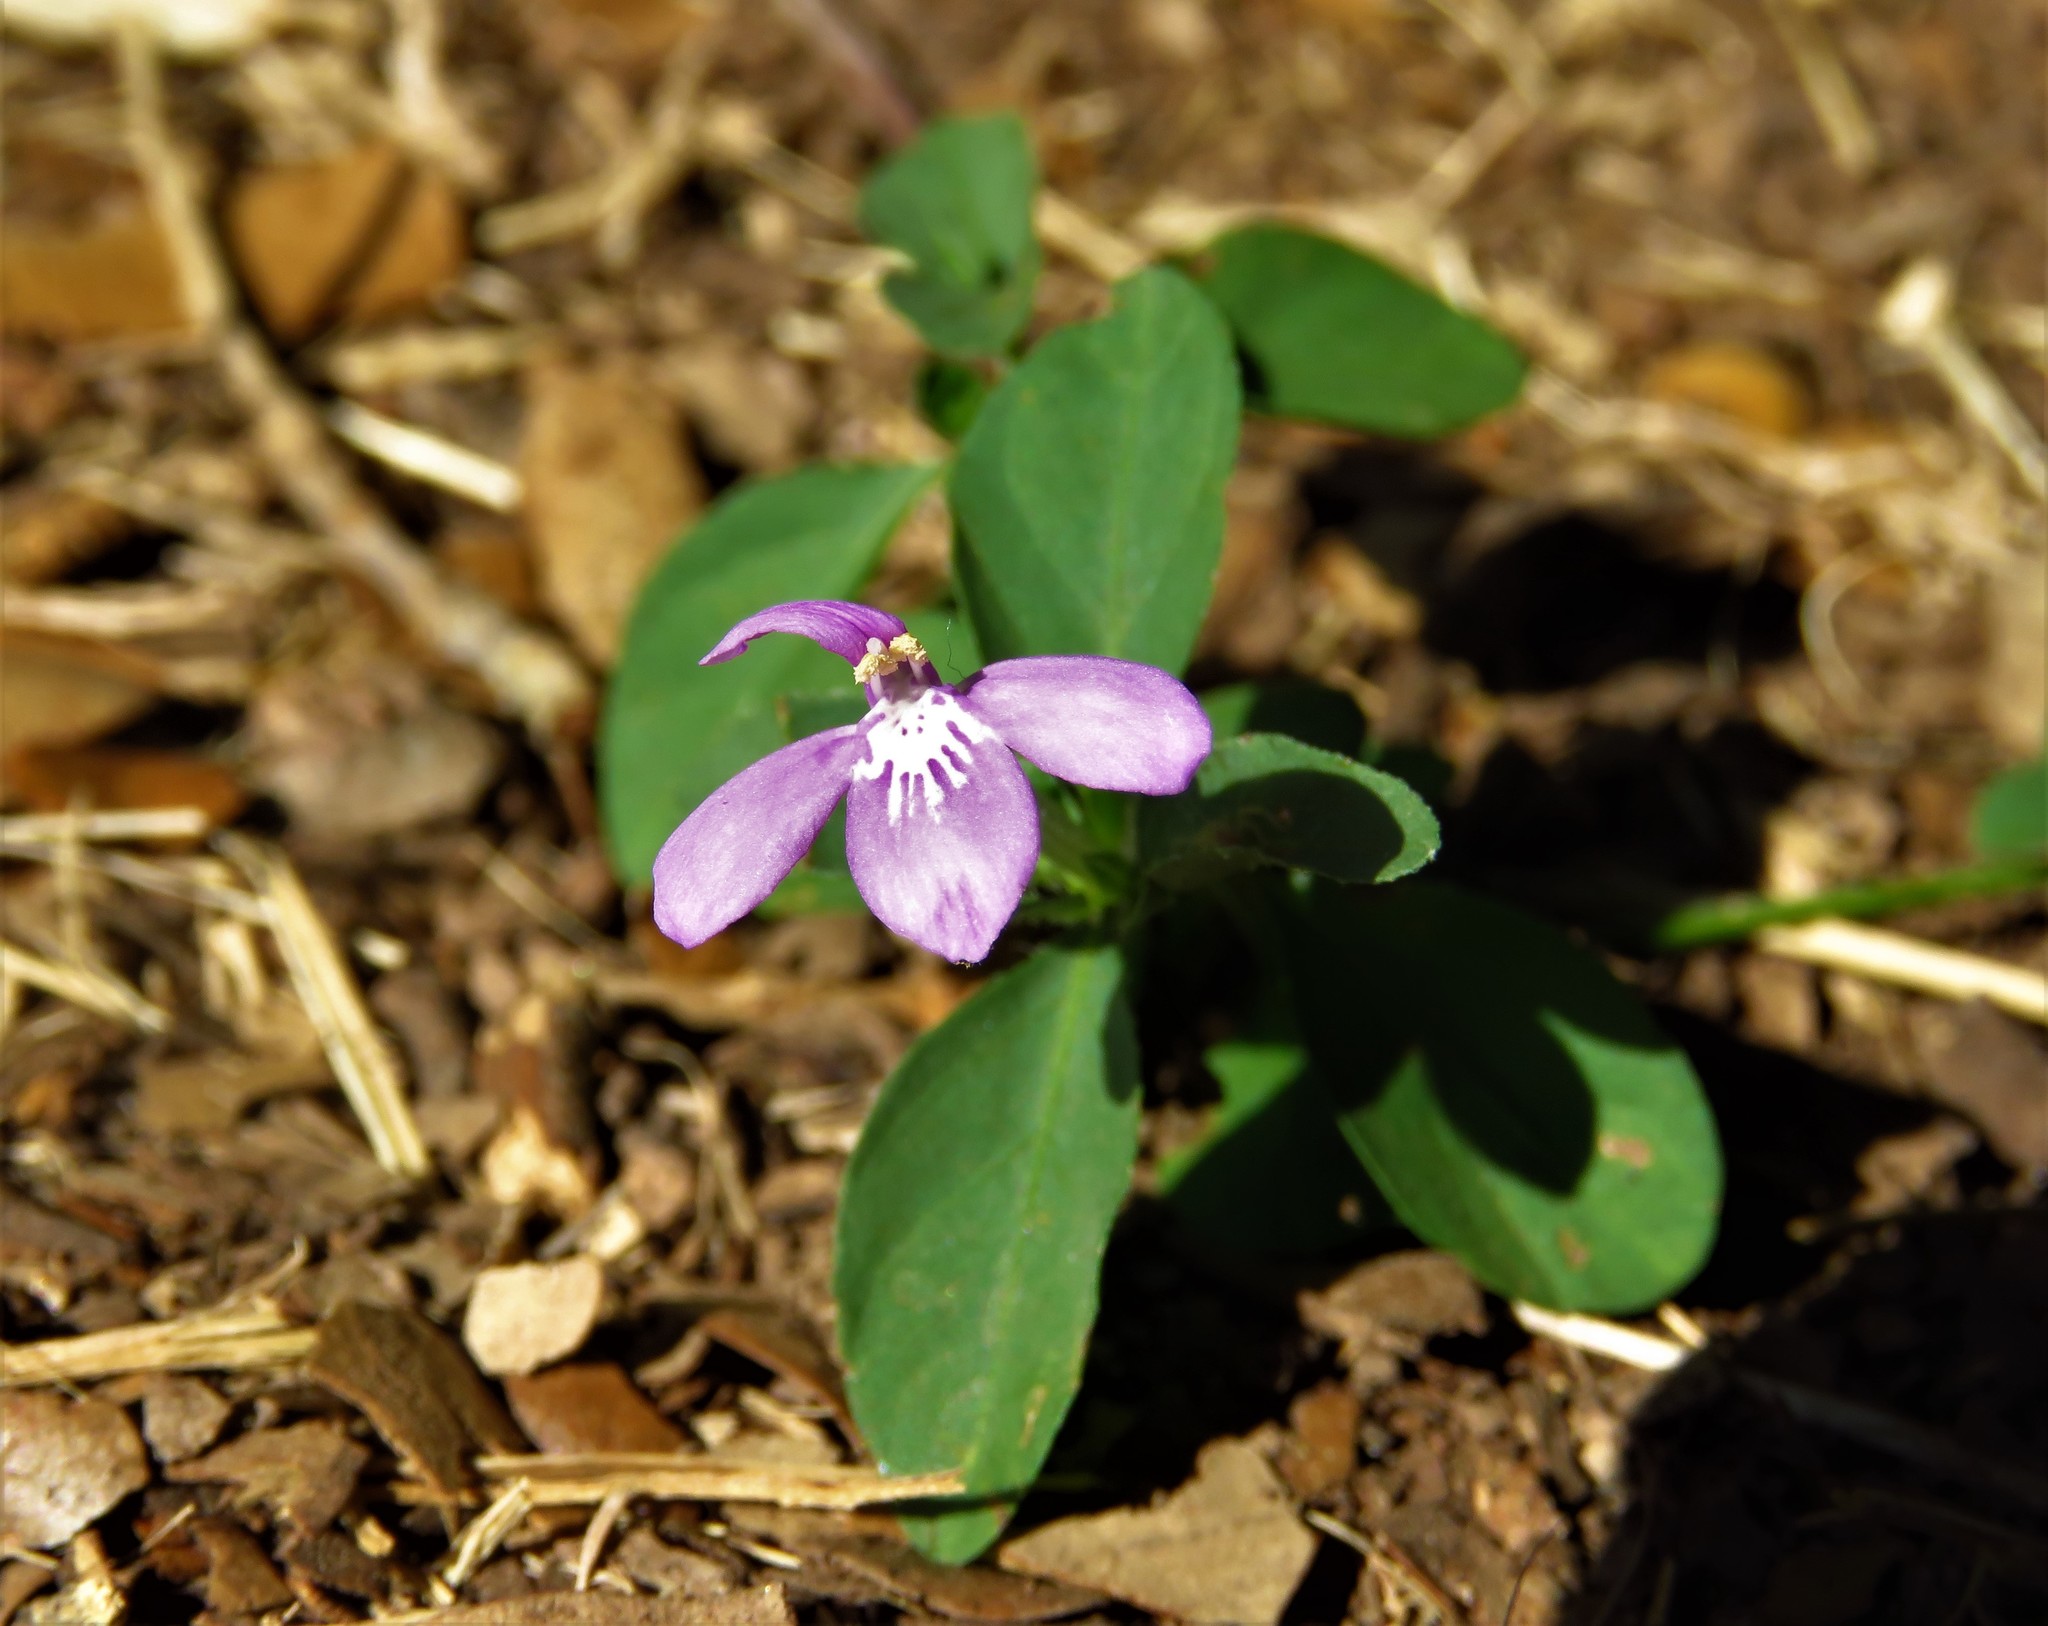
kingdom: Plantae
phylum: Tracheophyta
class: Magnoliopsida
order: Lamiales
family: Acanthaceae
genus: Justicia
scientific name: Justicia pilosella
